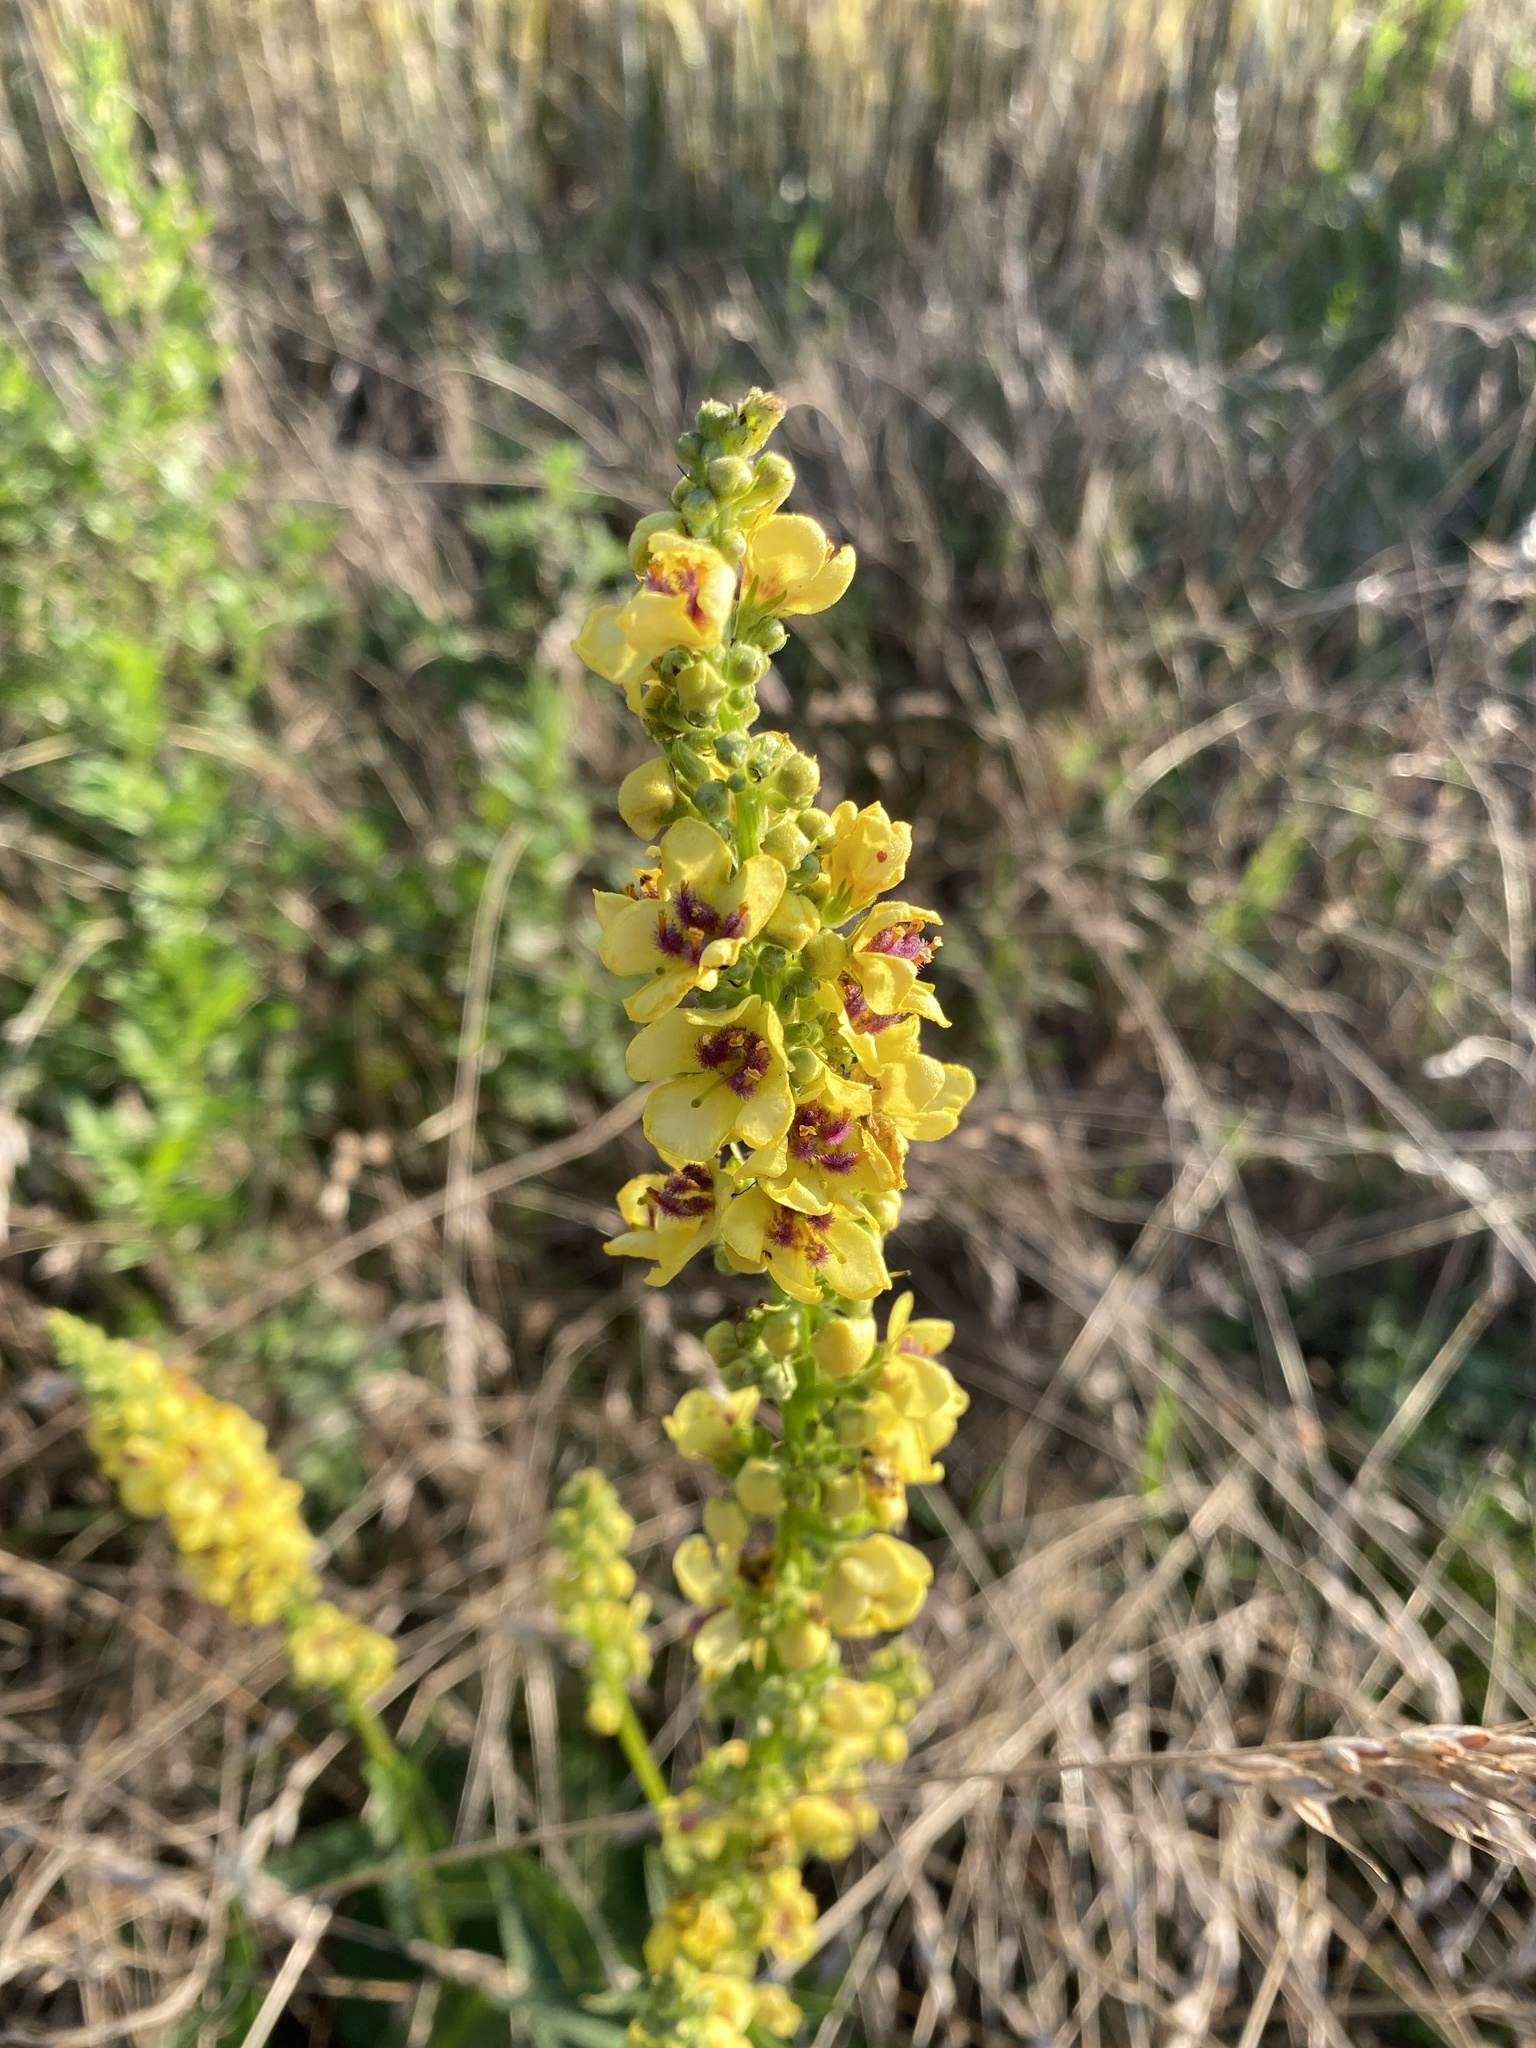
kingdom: Plantae
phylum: Tracheophyta
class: Magnoliopsida
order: Lamiales
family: Scrophulariaceae
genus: Verbascum
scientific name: Verbascum nigrum
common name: Dark mullein
